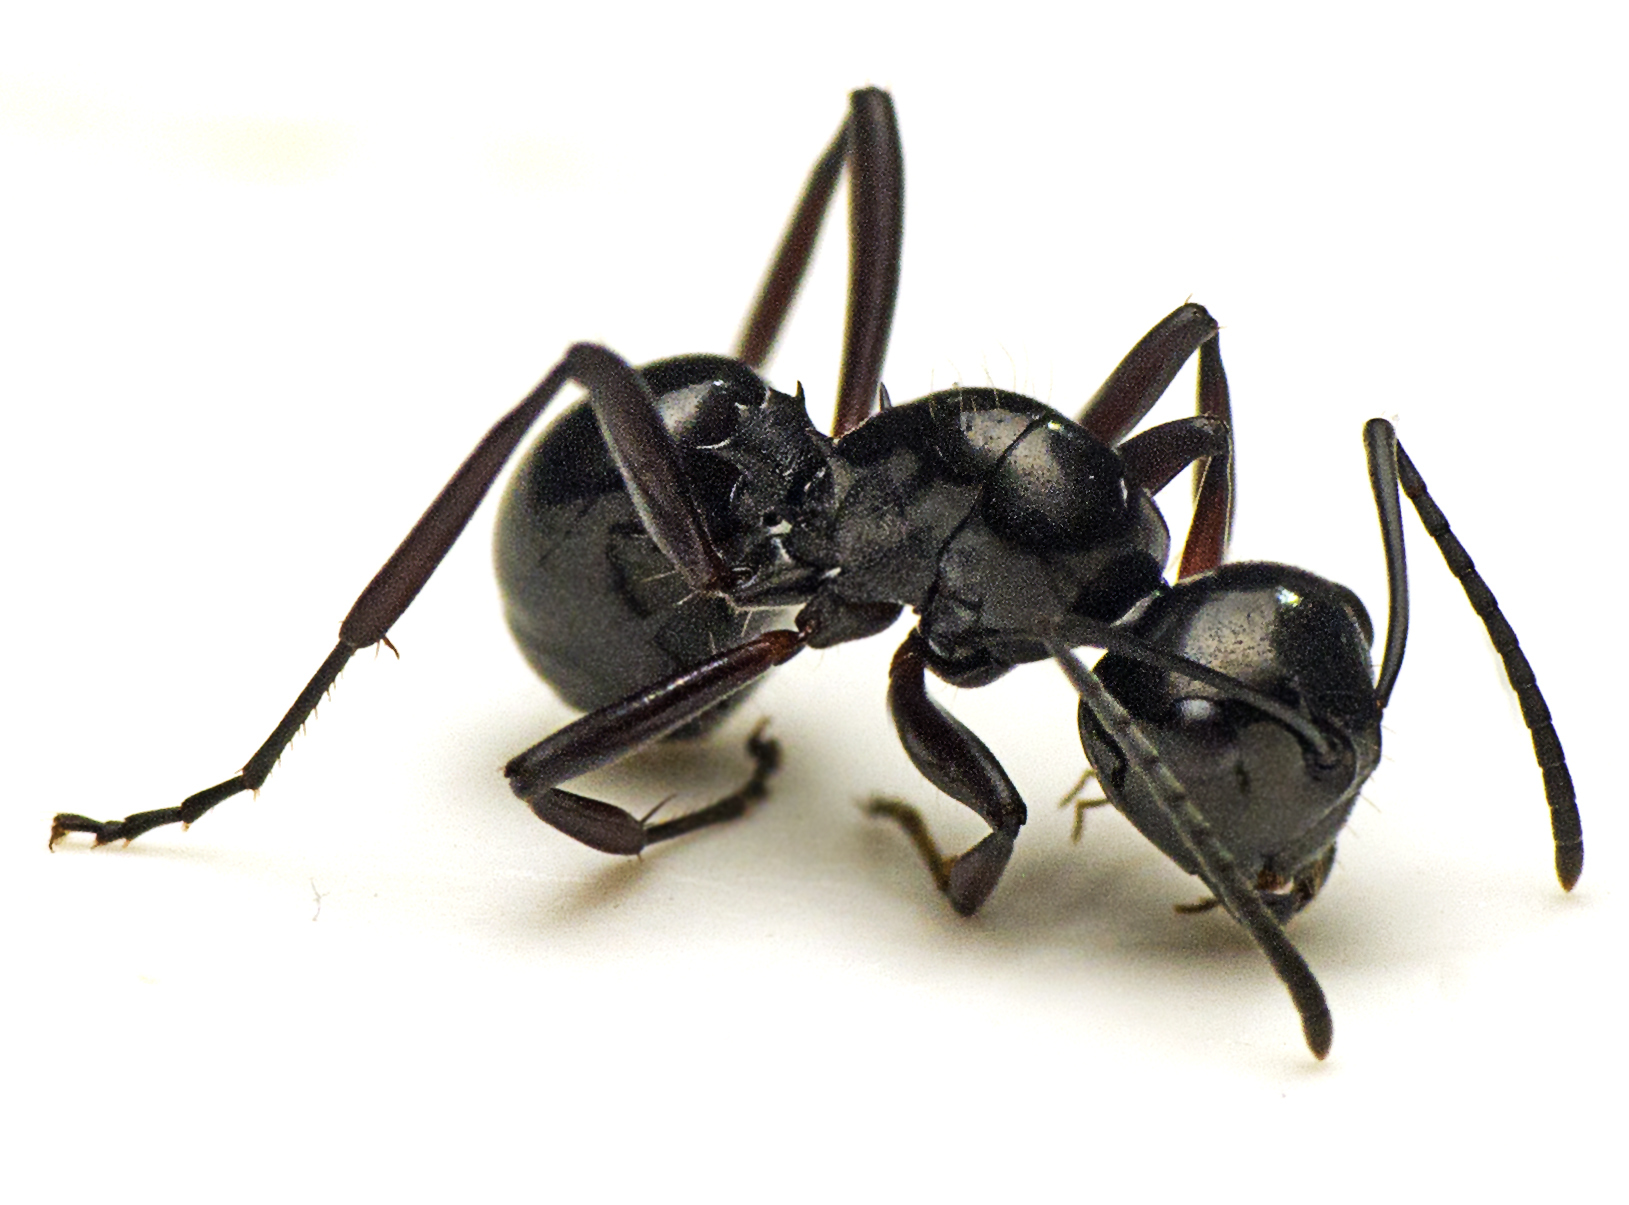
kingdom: Animalia
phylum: Arthropoda
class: Insecta
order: Hymenoptera
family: Formicidae
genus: Polyrhachis
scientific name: Polyrhachis australis
